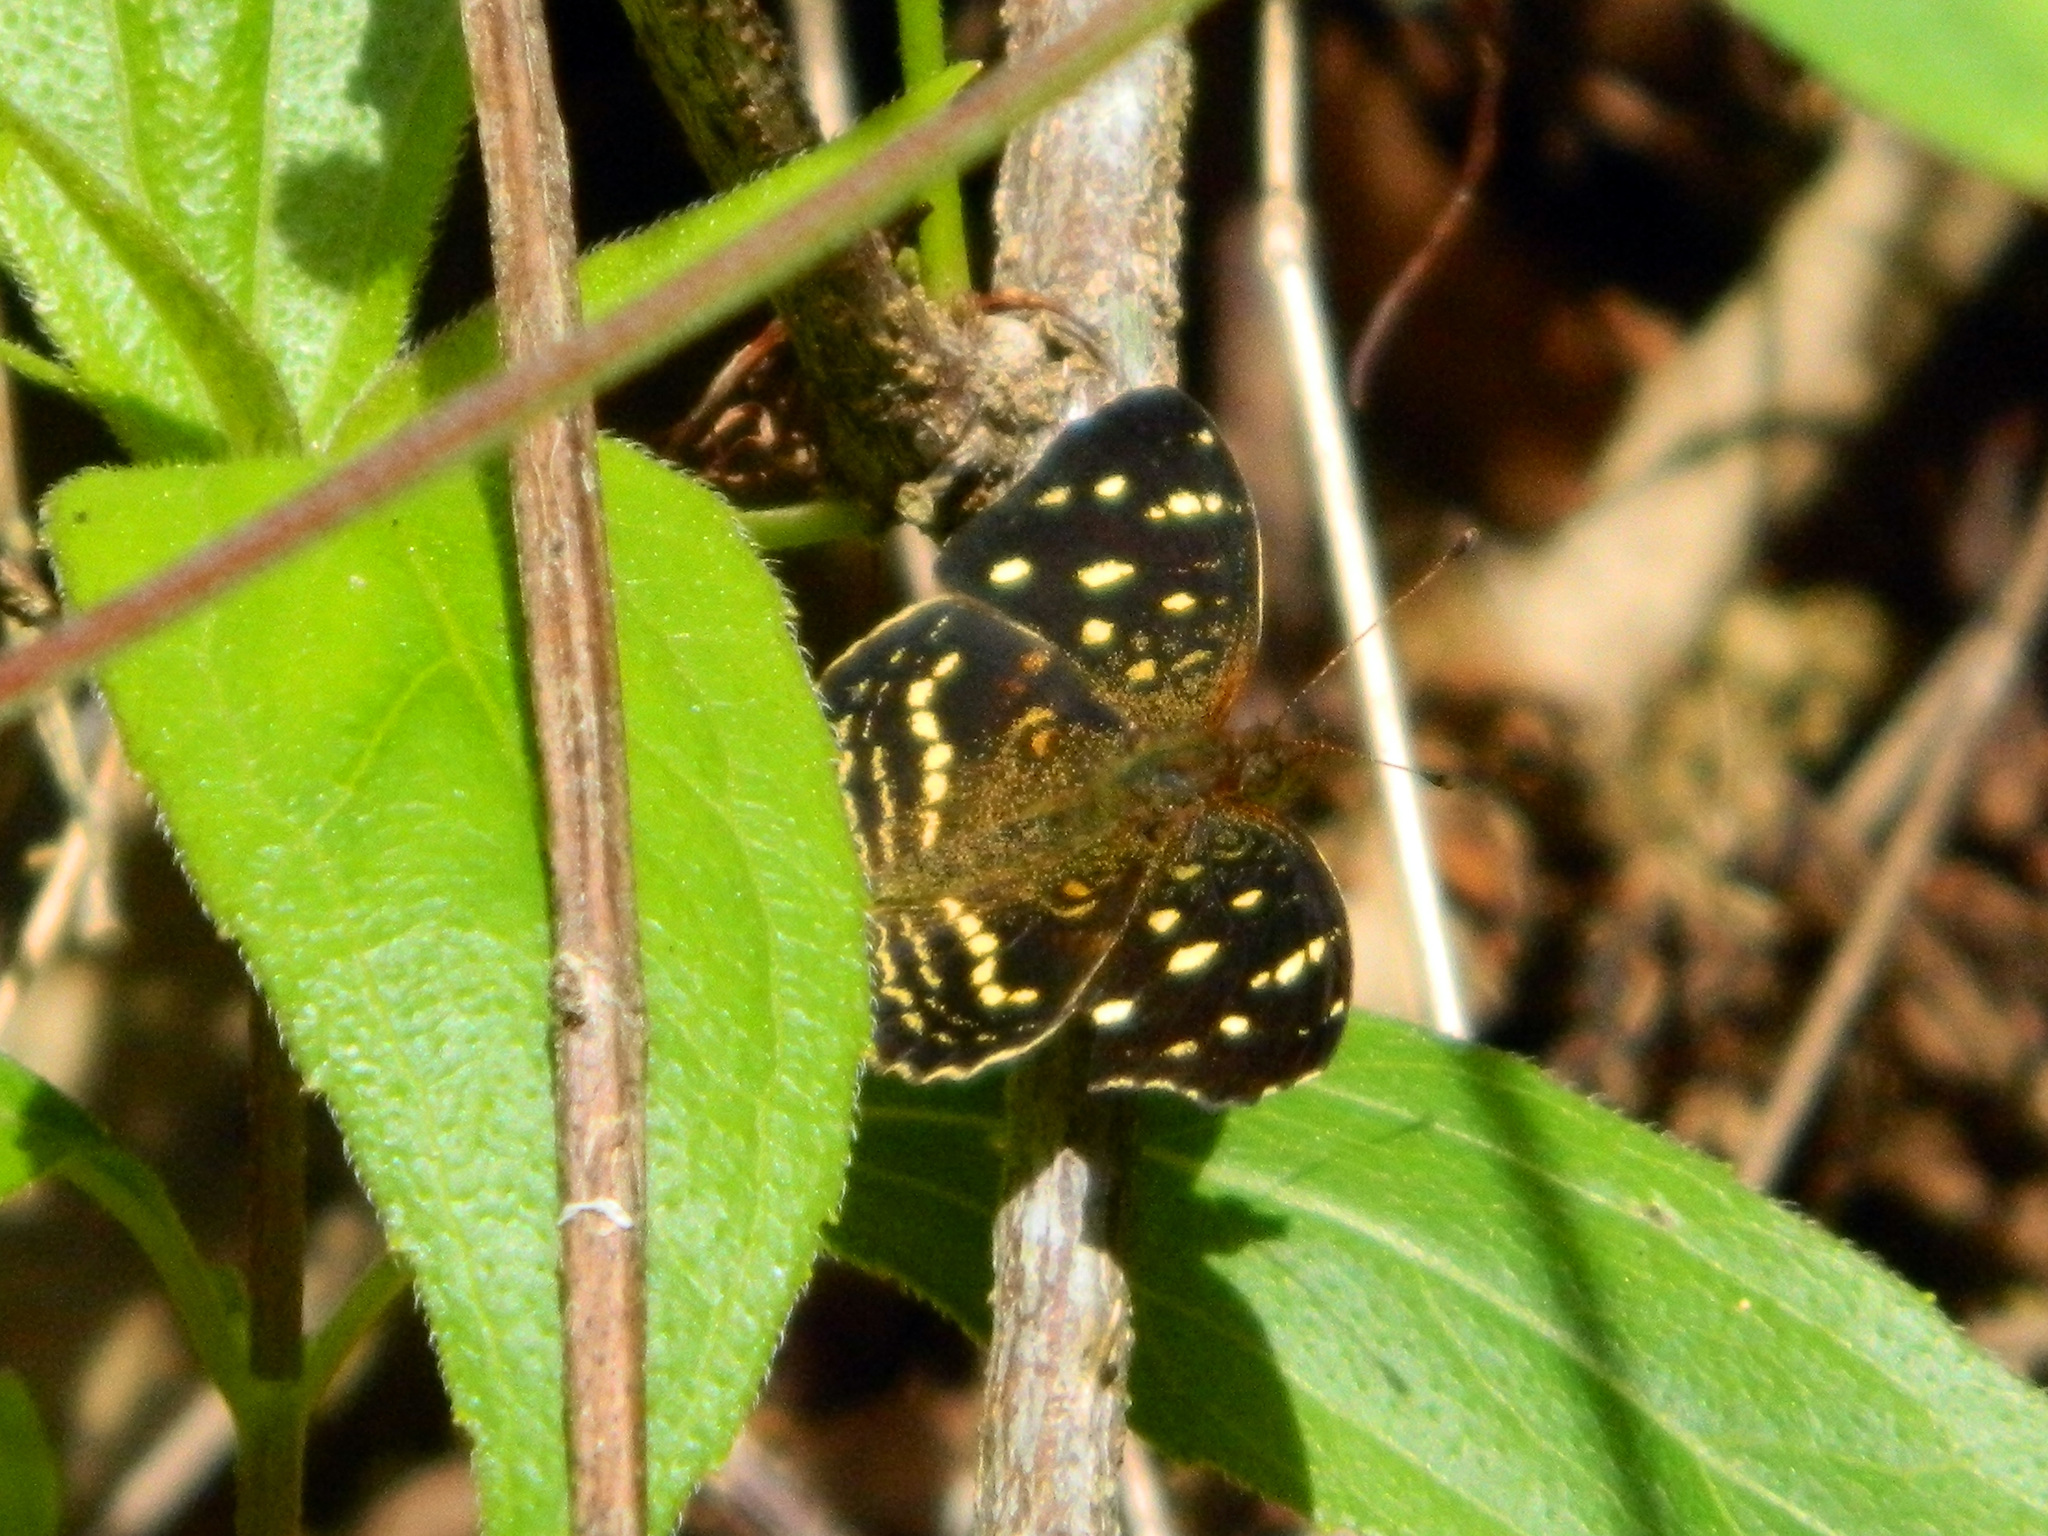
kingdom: Animalia
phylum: Arthropoda
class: Insecta
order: Lepidoptera
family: Nymphalidae
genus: Anthanassa
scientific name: Anthanassa ardys
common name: Ardys crescent
